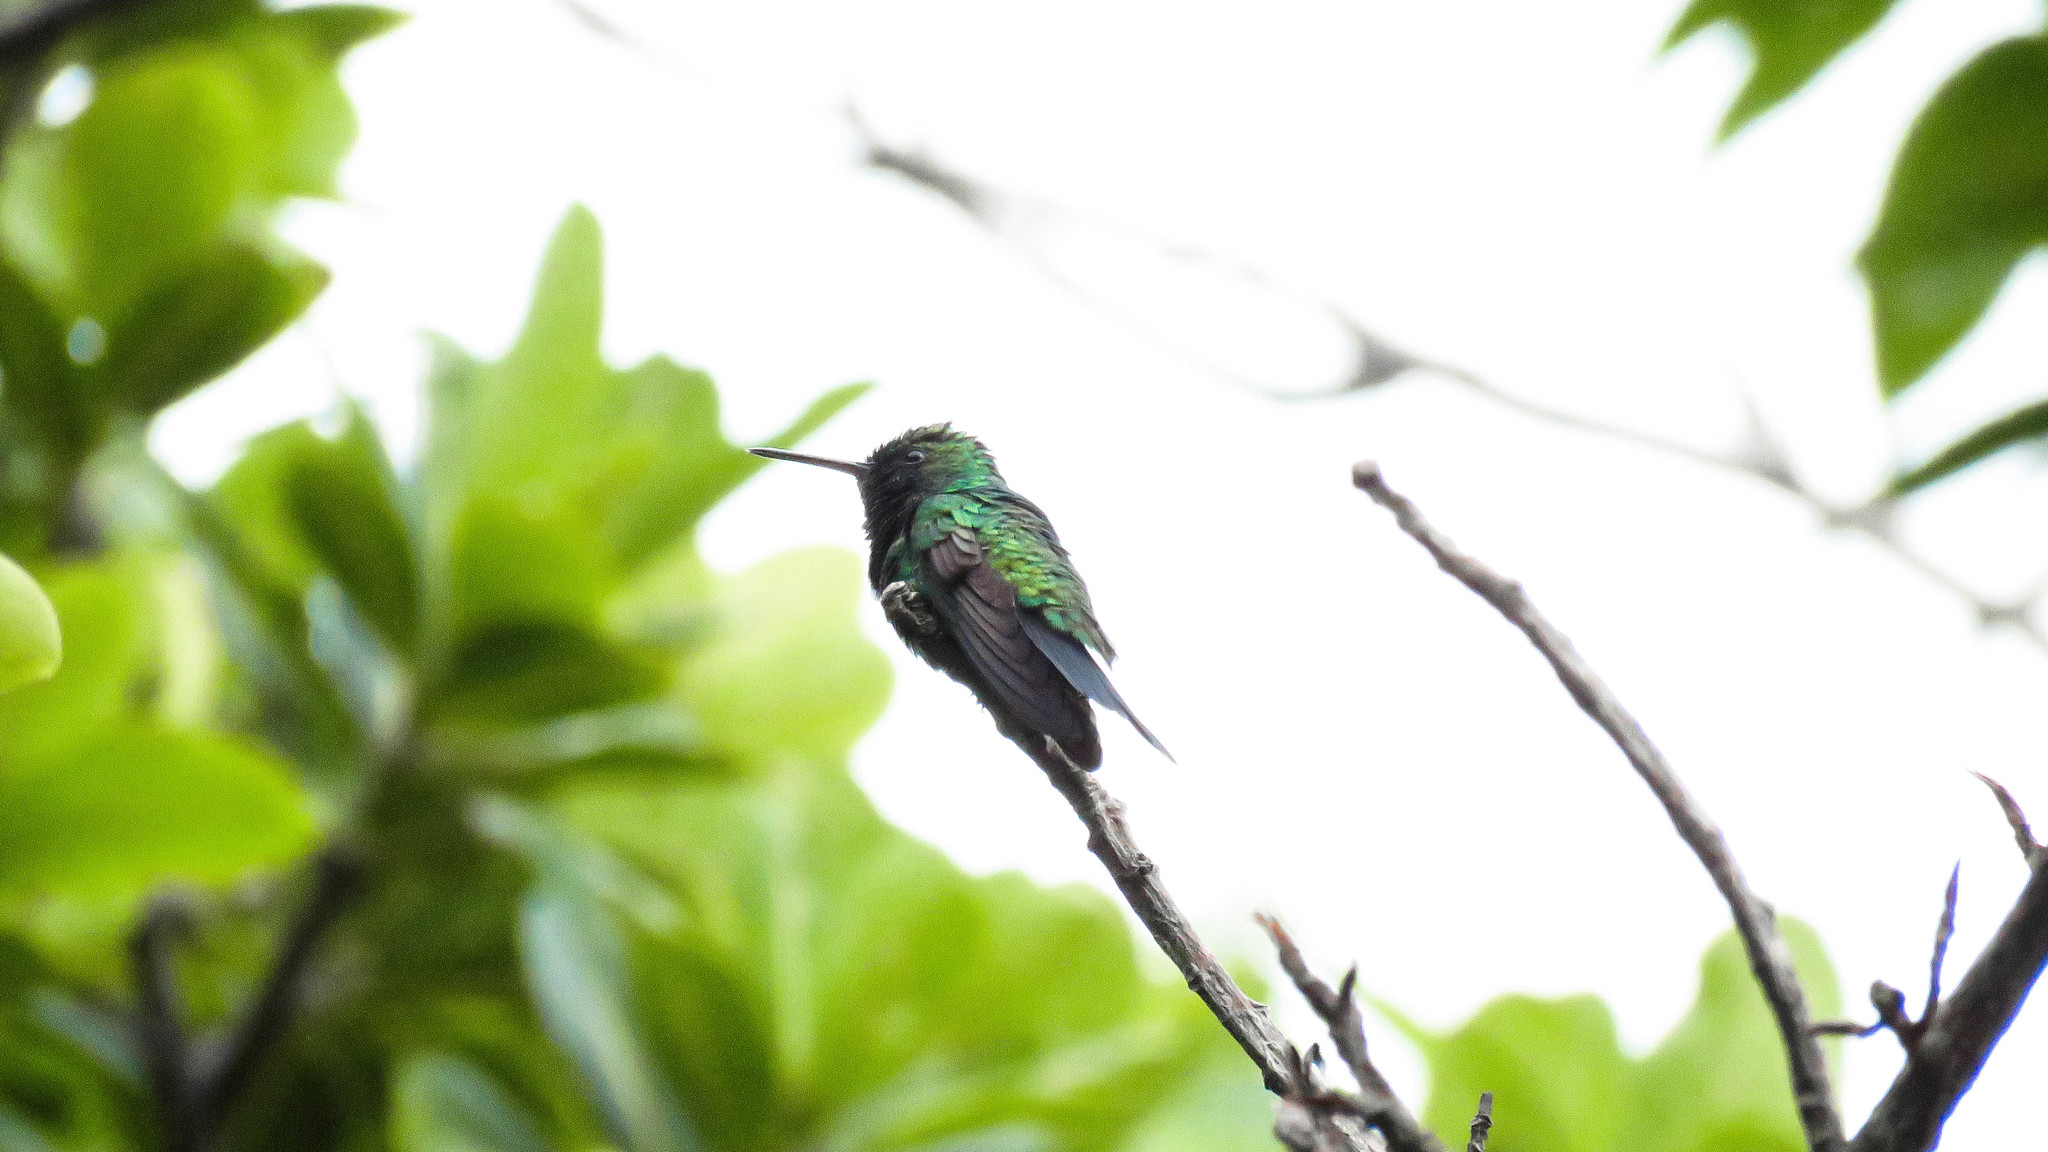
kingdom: Animalia
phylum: Chordata
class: Aves
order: Apodiformes
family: Trochilidae
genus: Chlorestes
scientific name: Chlorestes notata
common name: Blue-chinned sapphire
